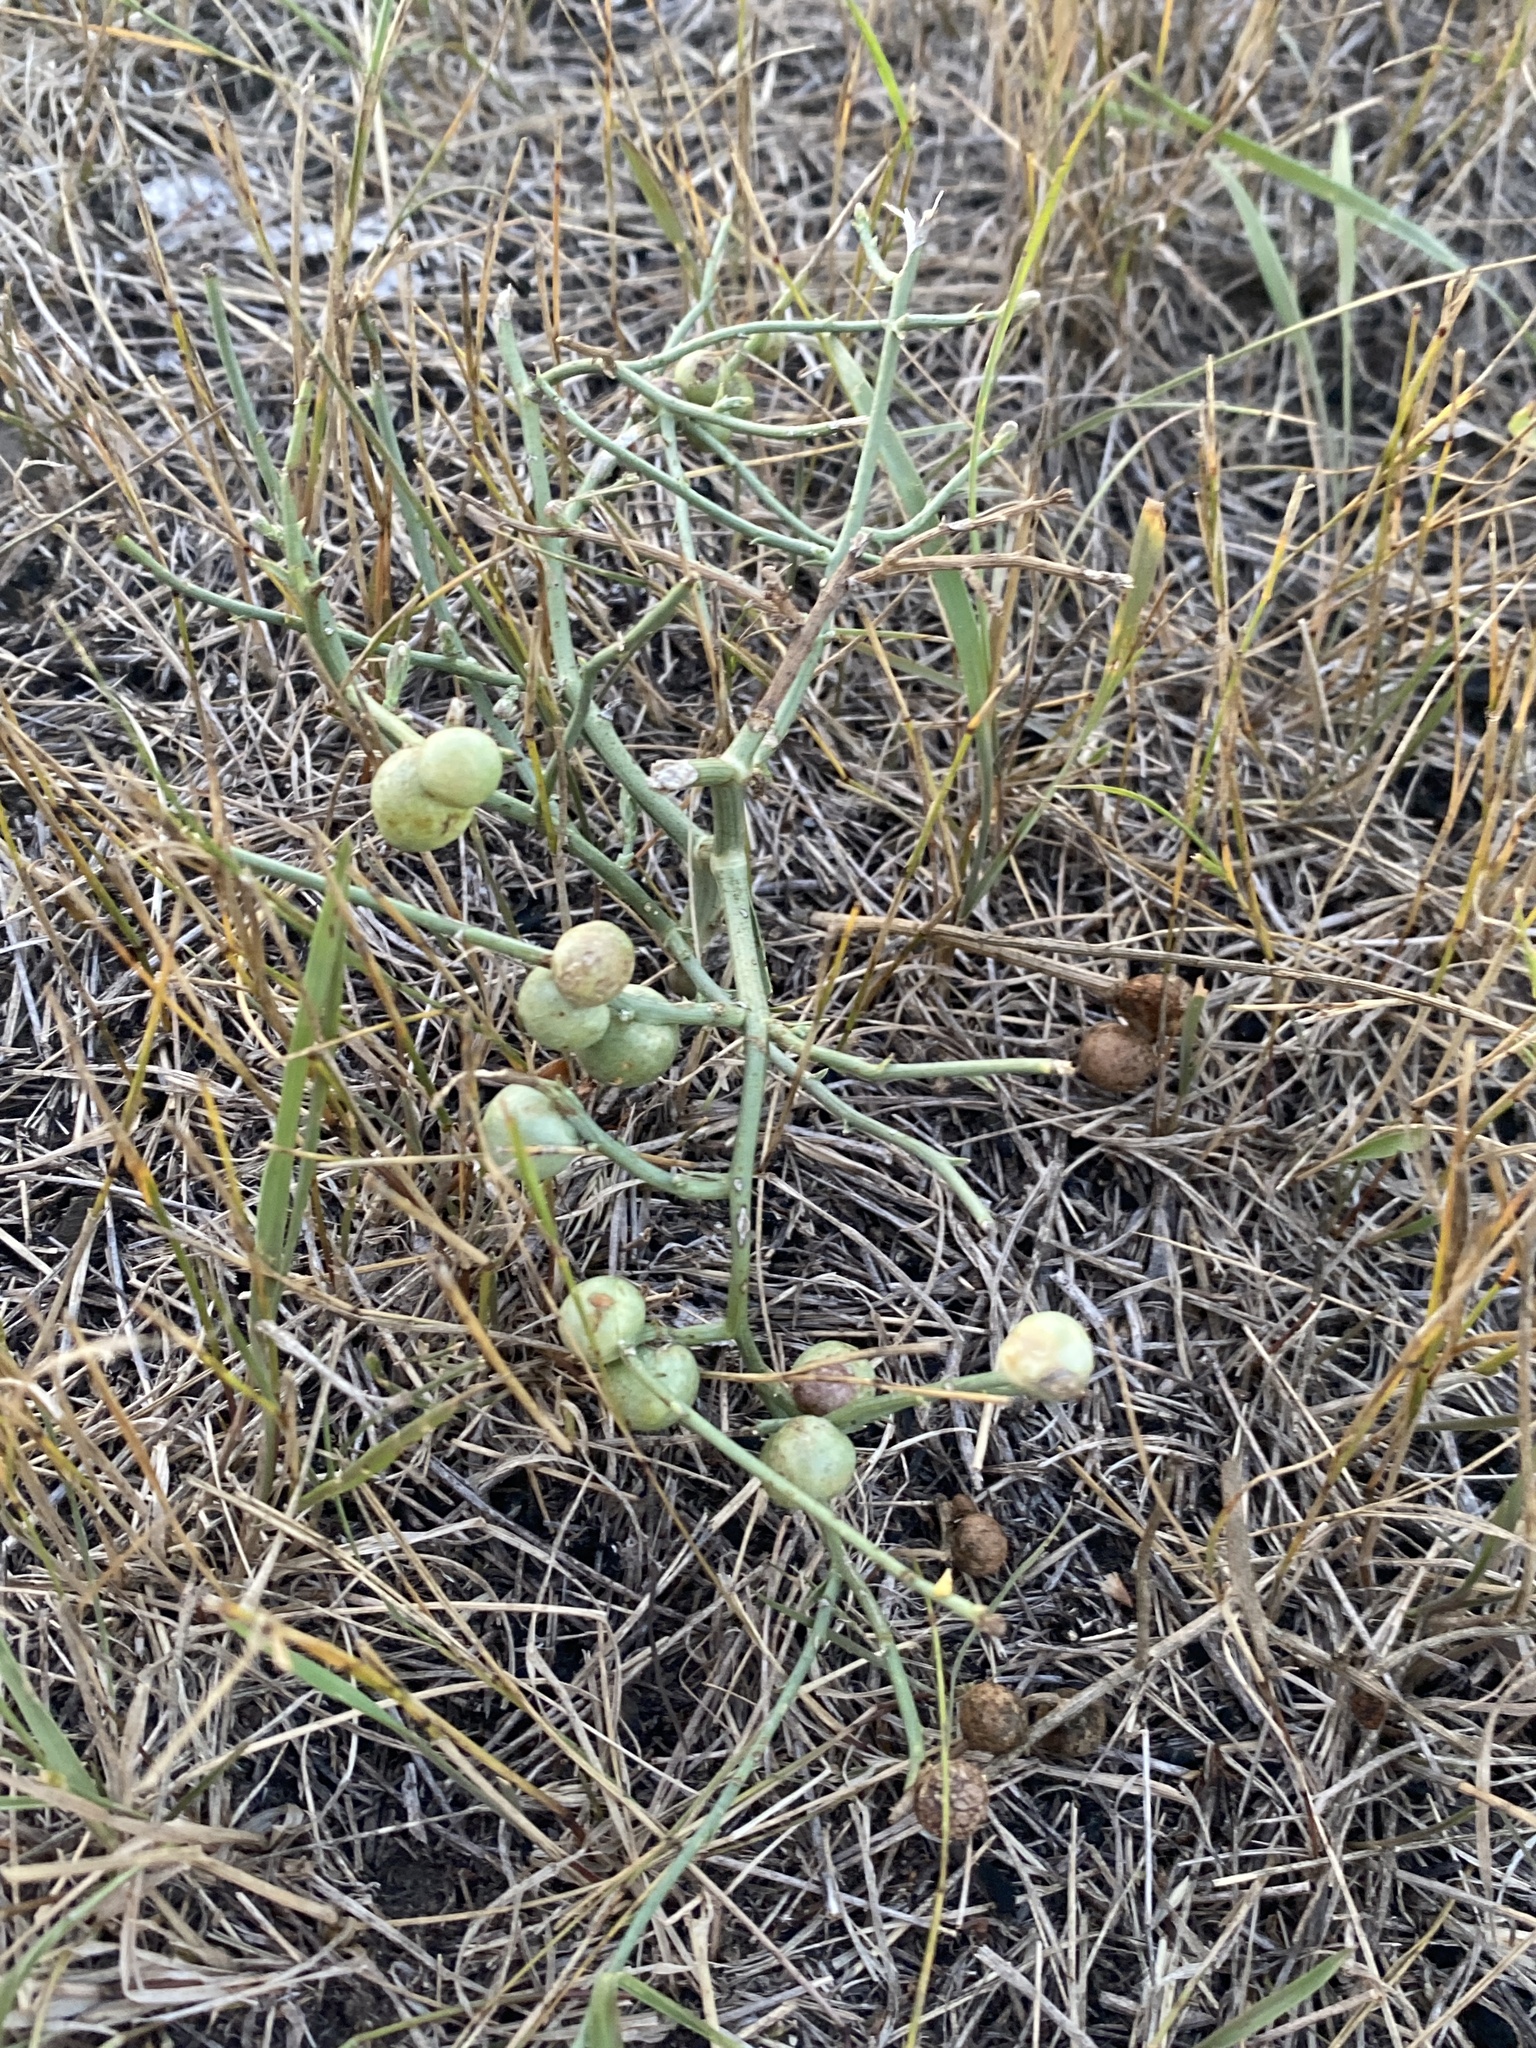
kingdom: Plantae
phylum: Tracheophyta
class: Magnoliopsida
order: Asterales
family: Asteraceae
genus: Lygodesmia
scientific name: Lygodesmia juncea
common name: Common skeletonweed
